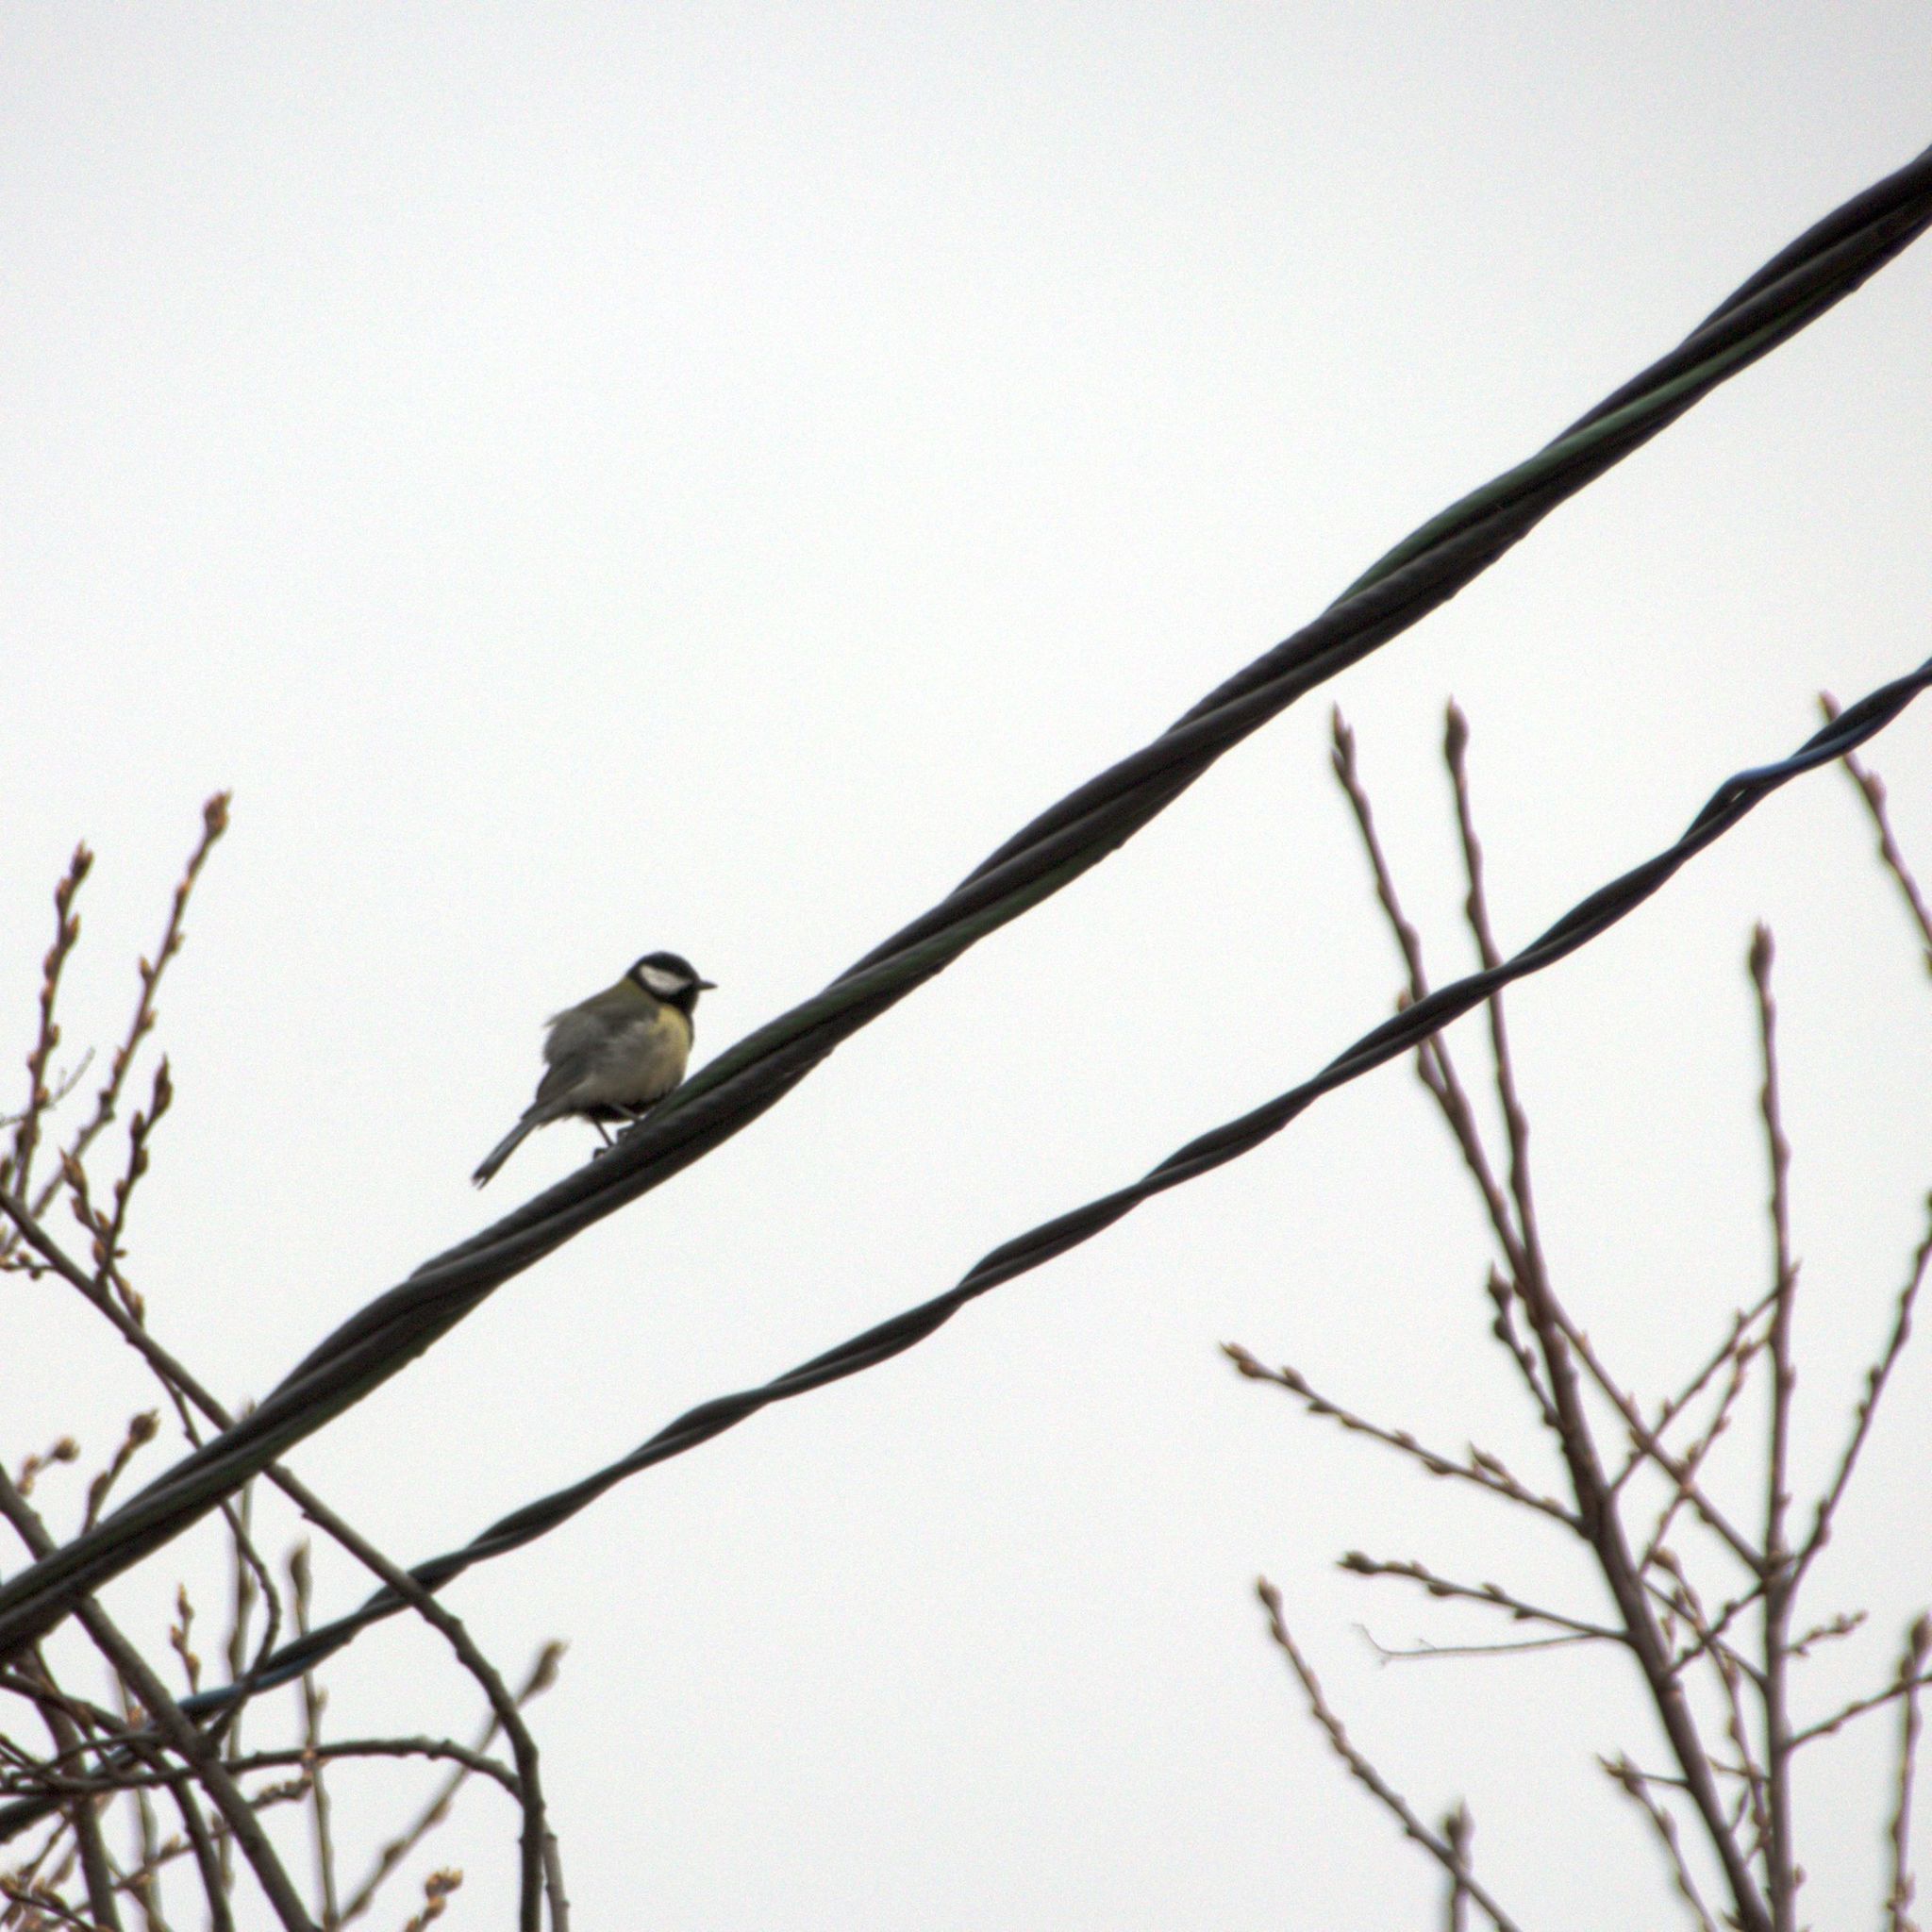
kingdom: Animalia
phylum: Chordata
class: Aves
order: Passeriformes
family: Paridae
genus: Parus
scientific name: Parus major
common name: Great tit
